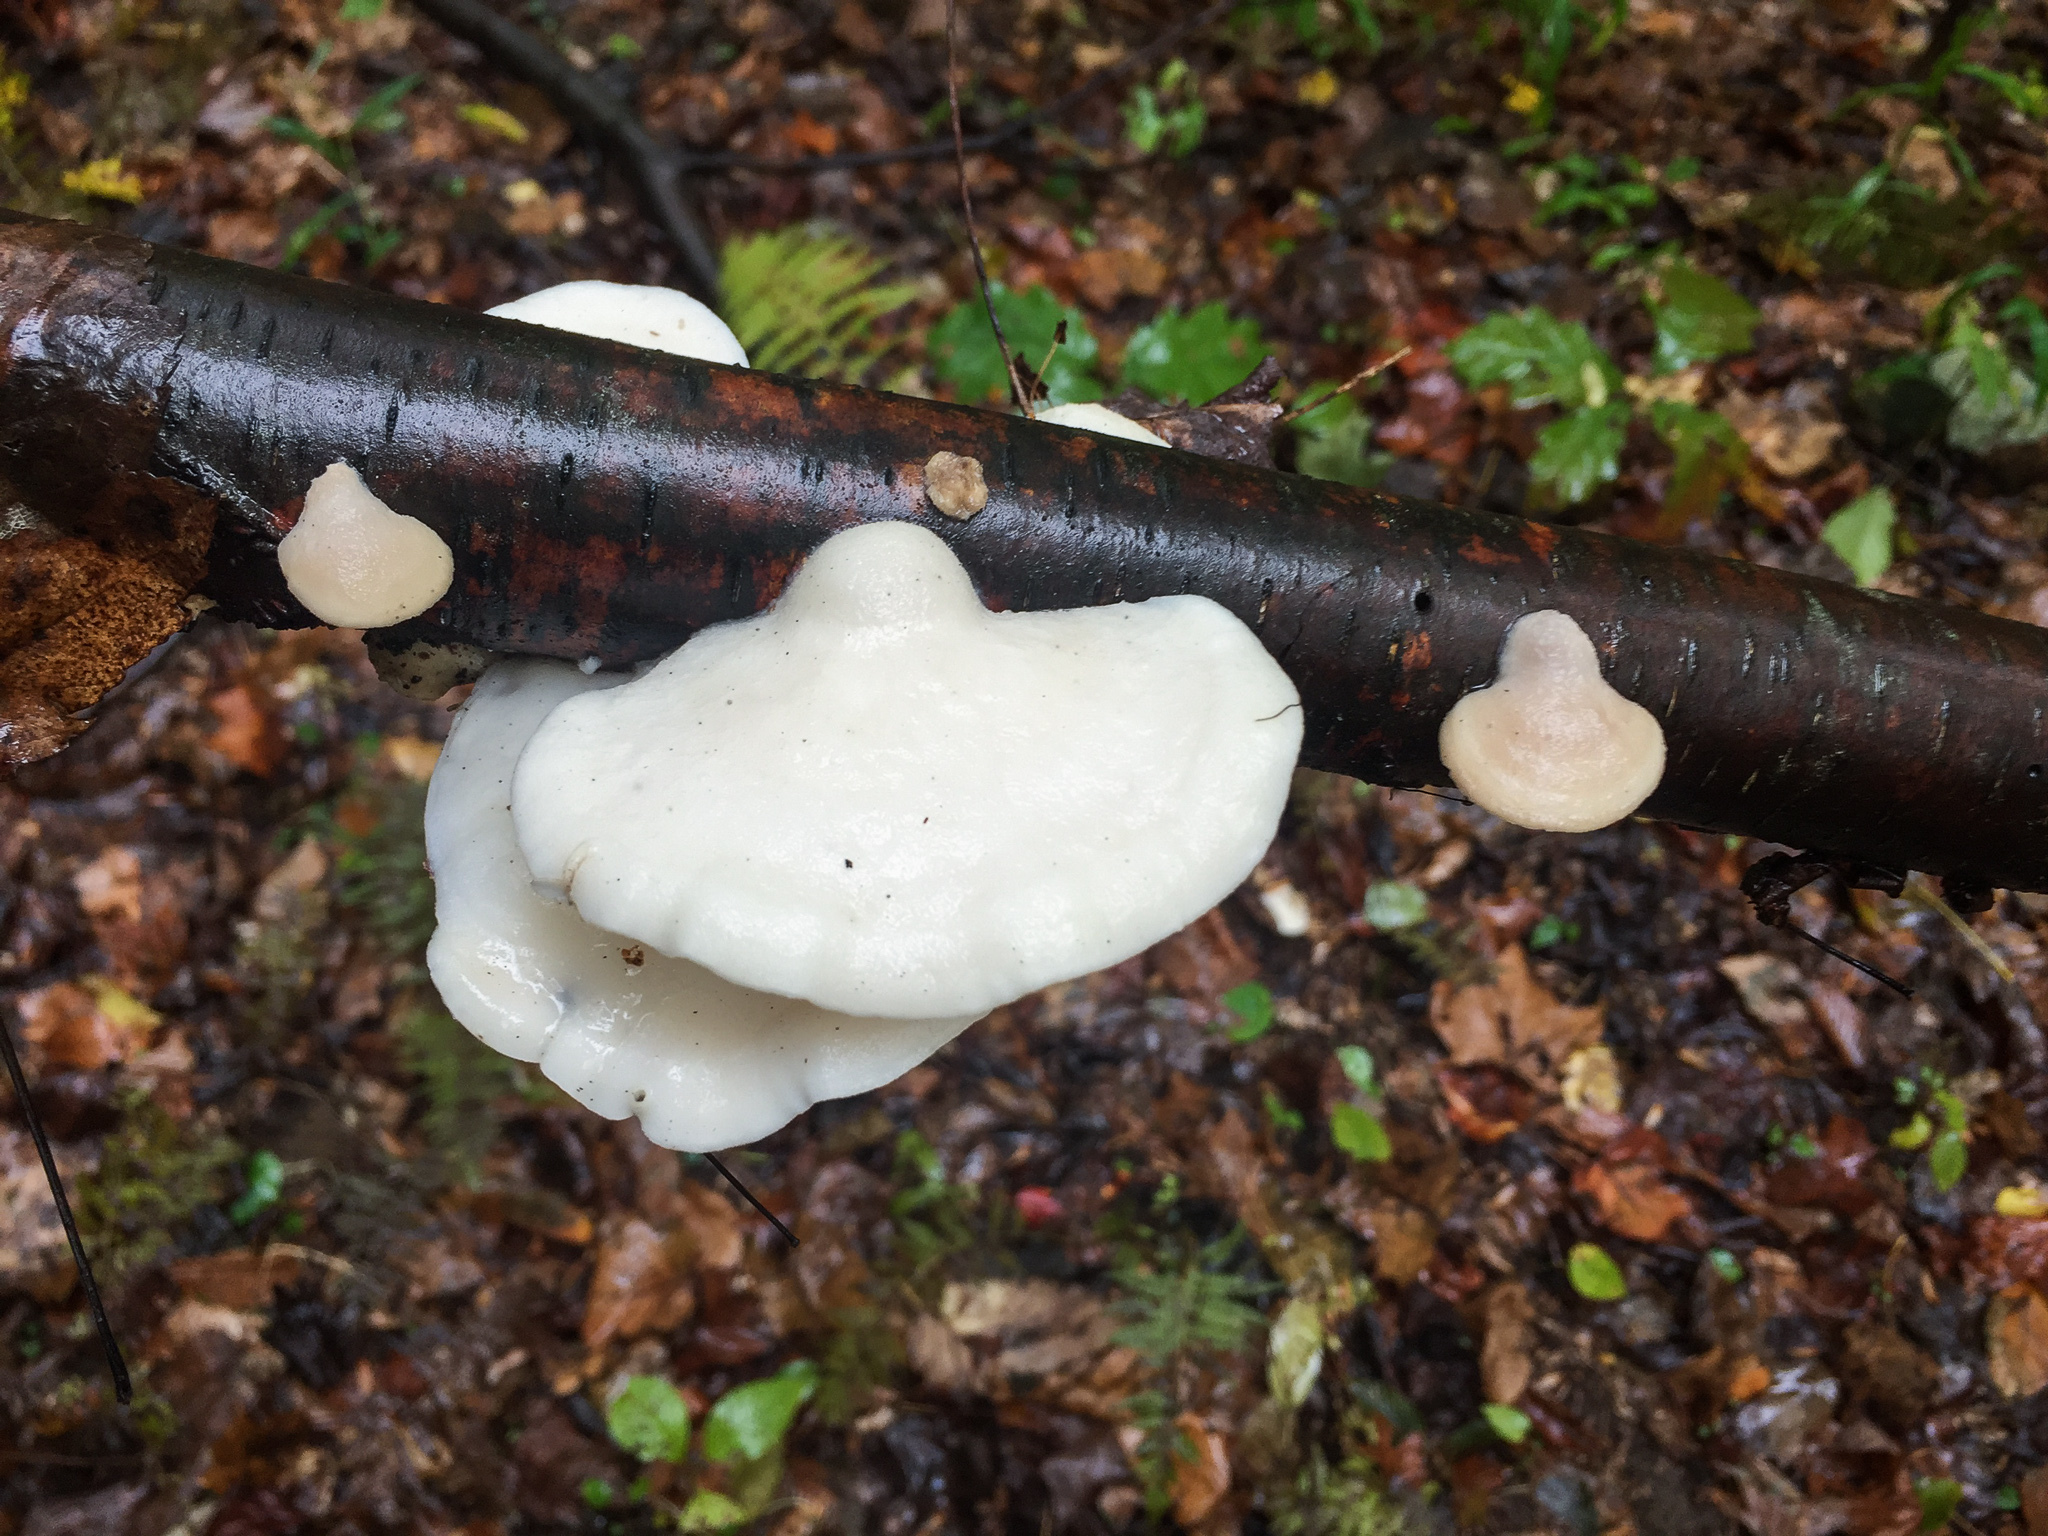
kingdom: Fungi
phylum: Basidiomycota
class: Agaricomycetes
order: Polyporales
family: Incrustoporiaceae
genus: Tyromyces
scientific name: Tyromyces chioneus
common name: White cheese polypore
